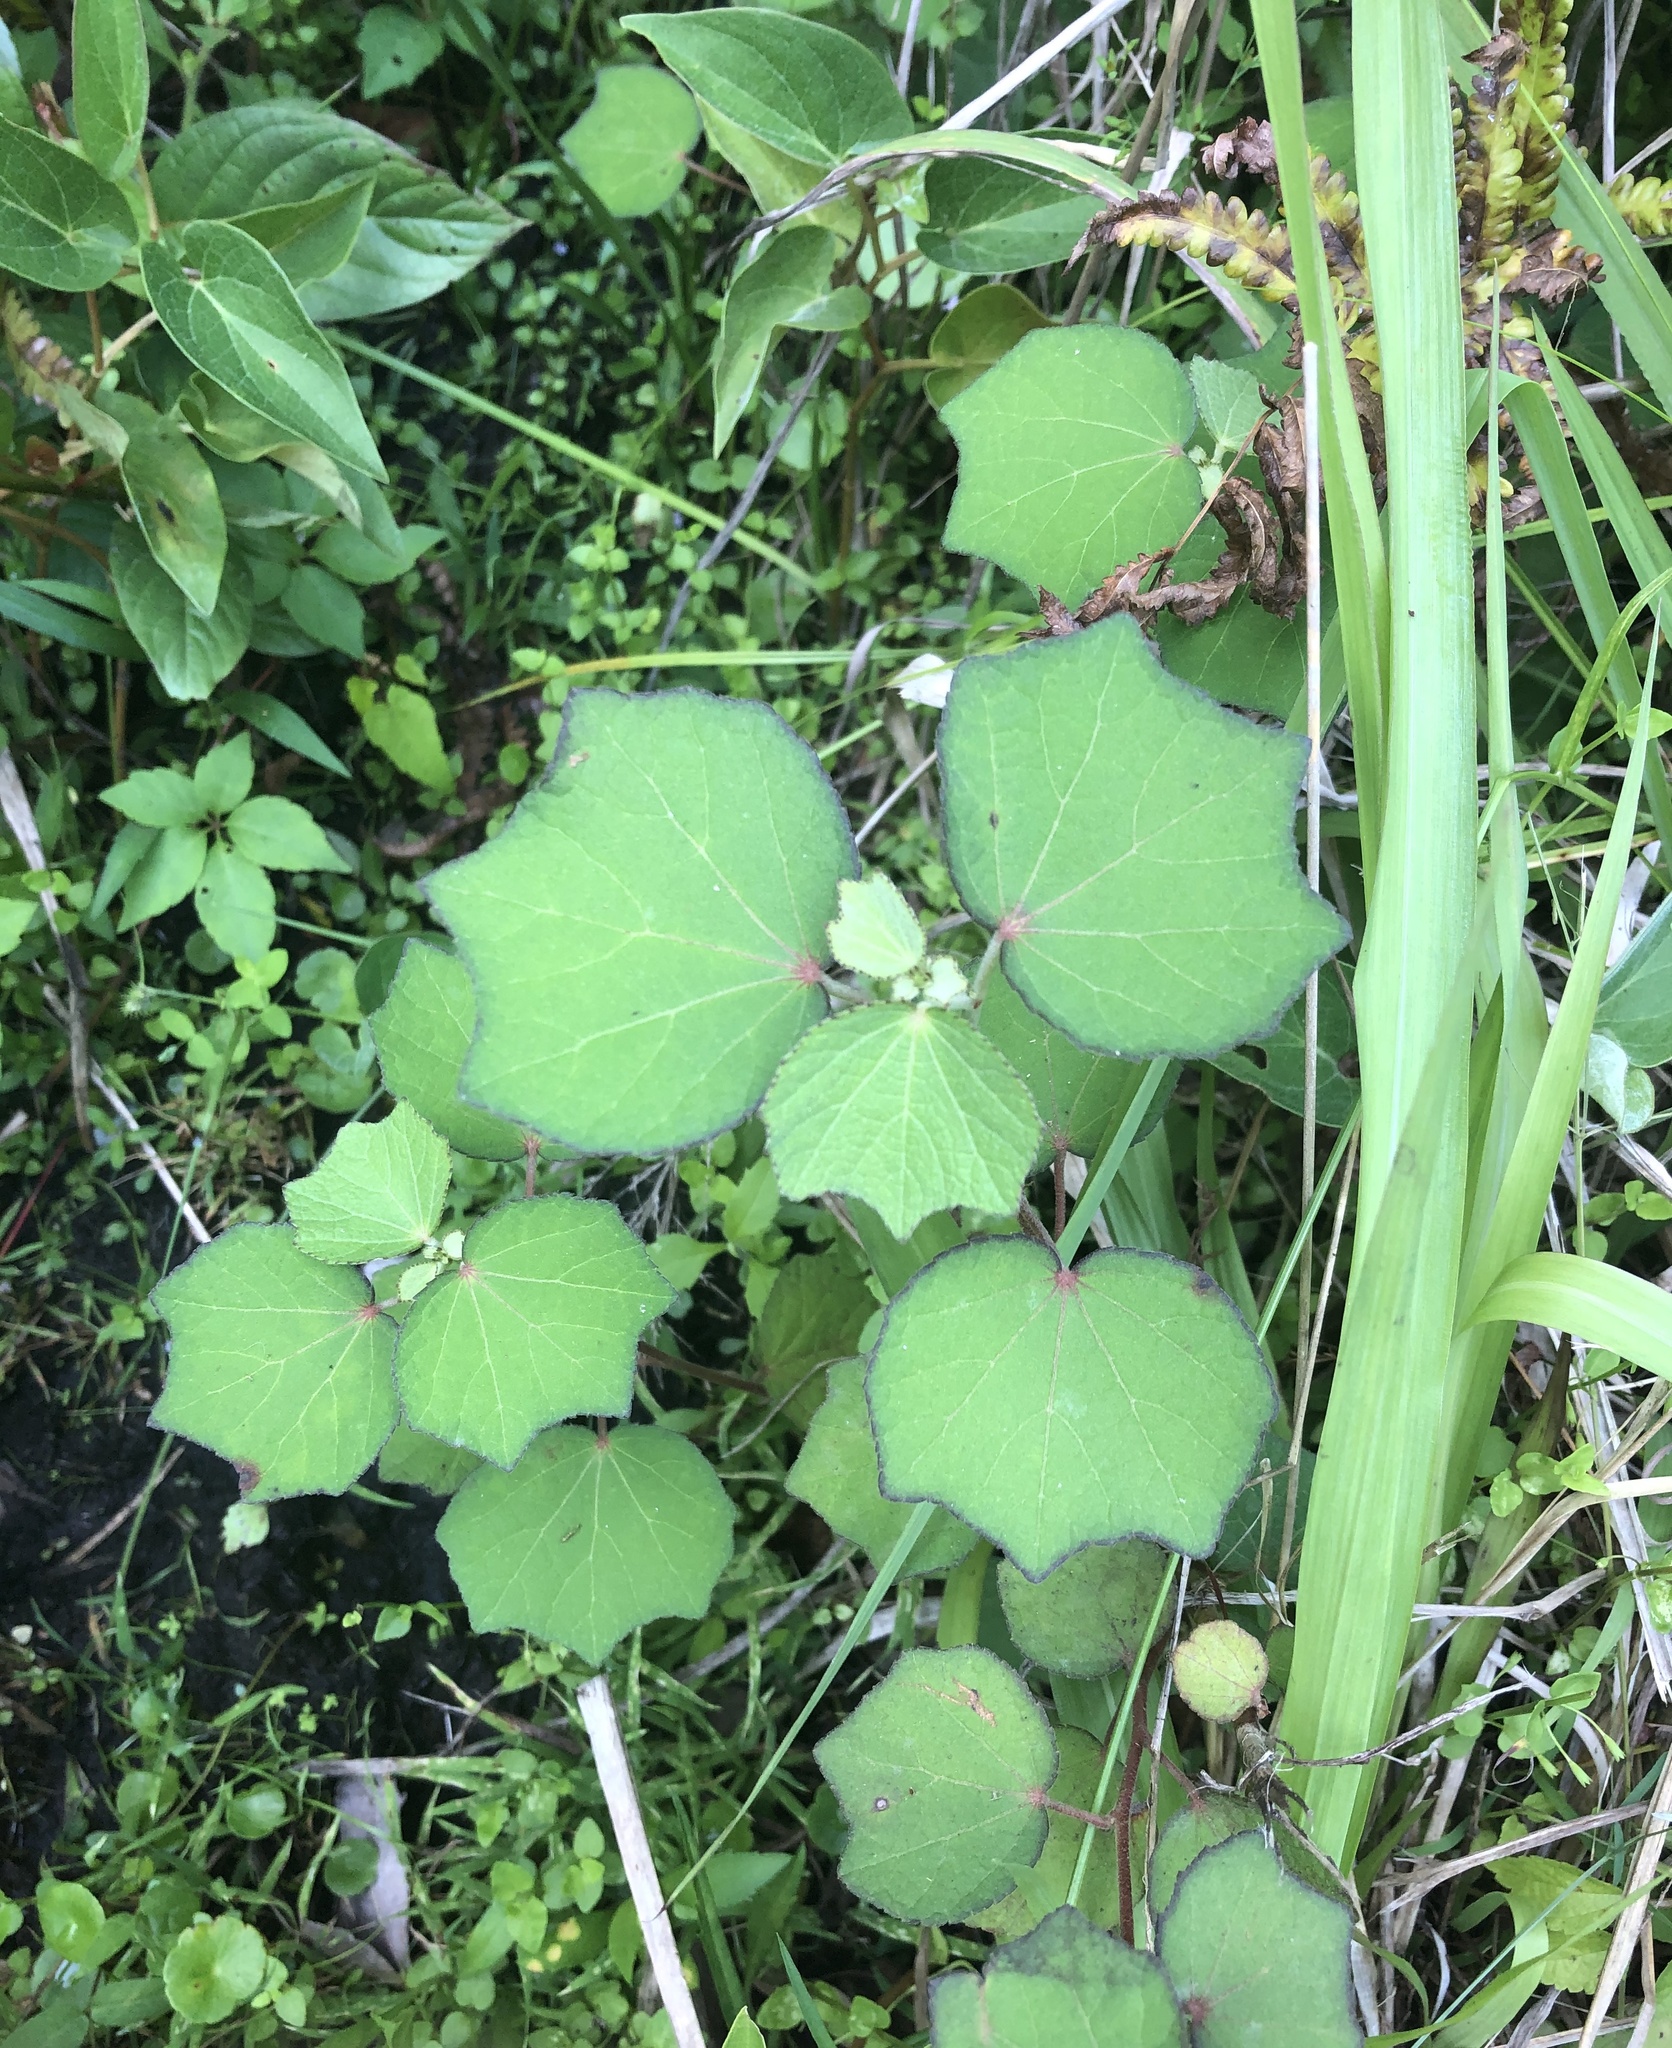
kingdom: Plantae
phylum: Tracheophyta
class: Magnoliopsida
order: Malvales
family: Malvaceae
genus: Urena
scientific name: Urena lobata
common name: Caesarweed
